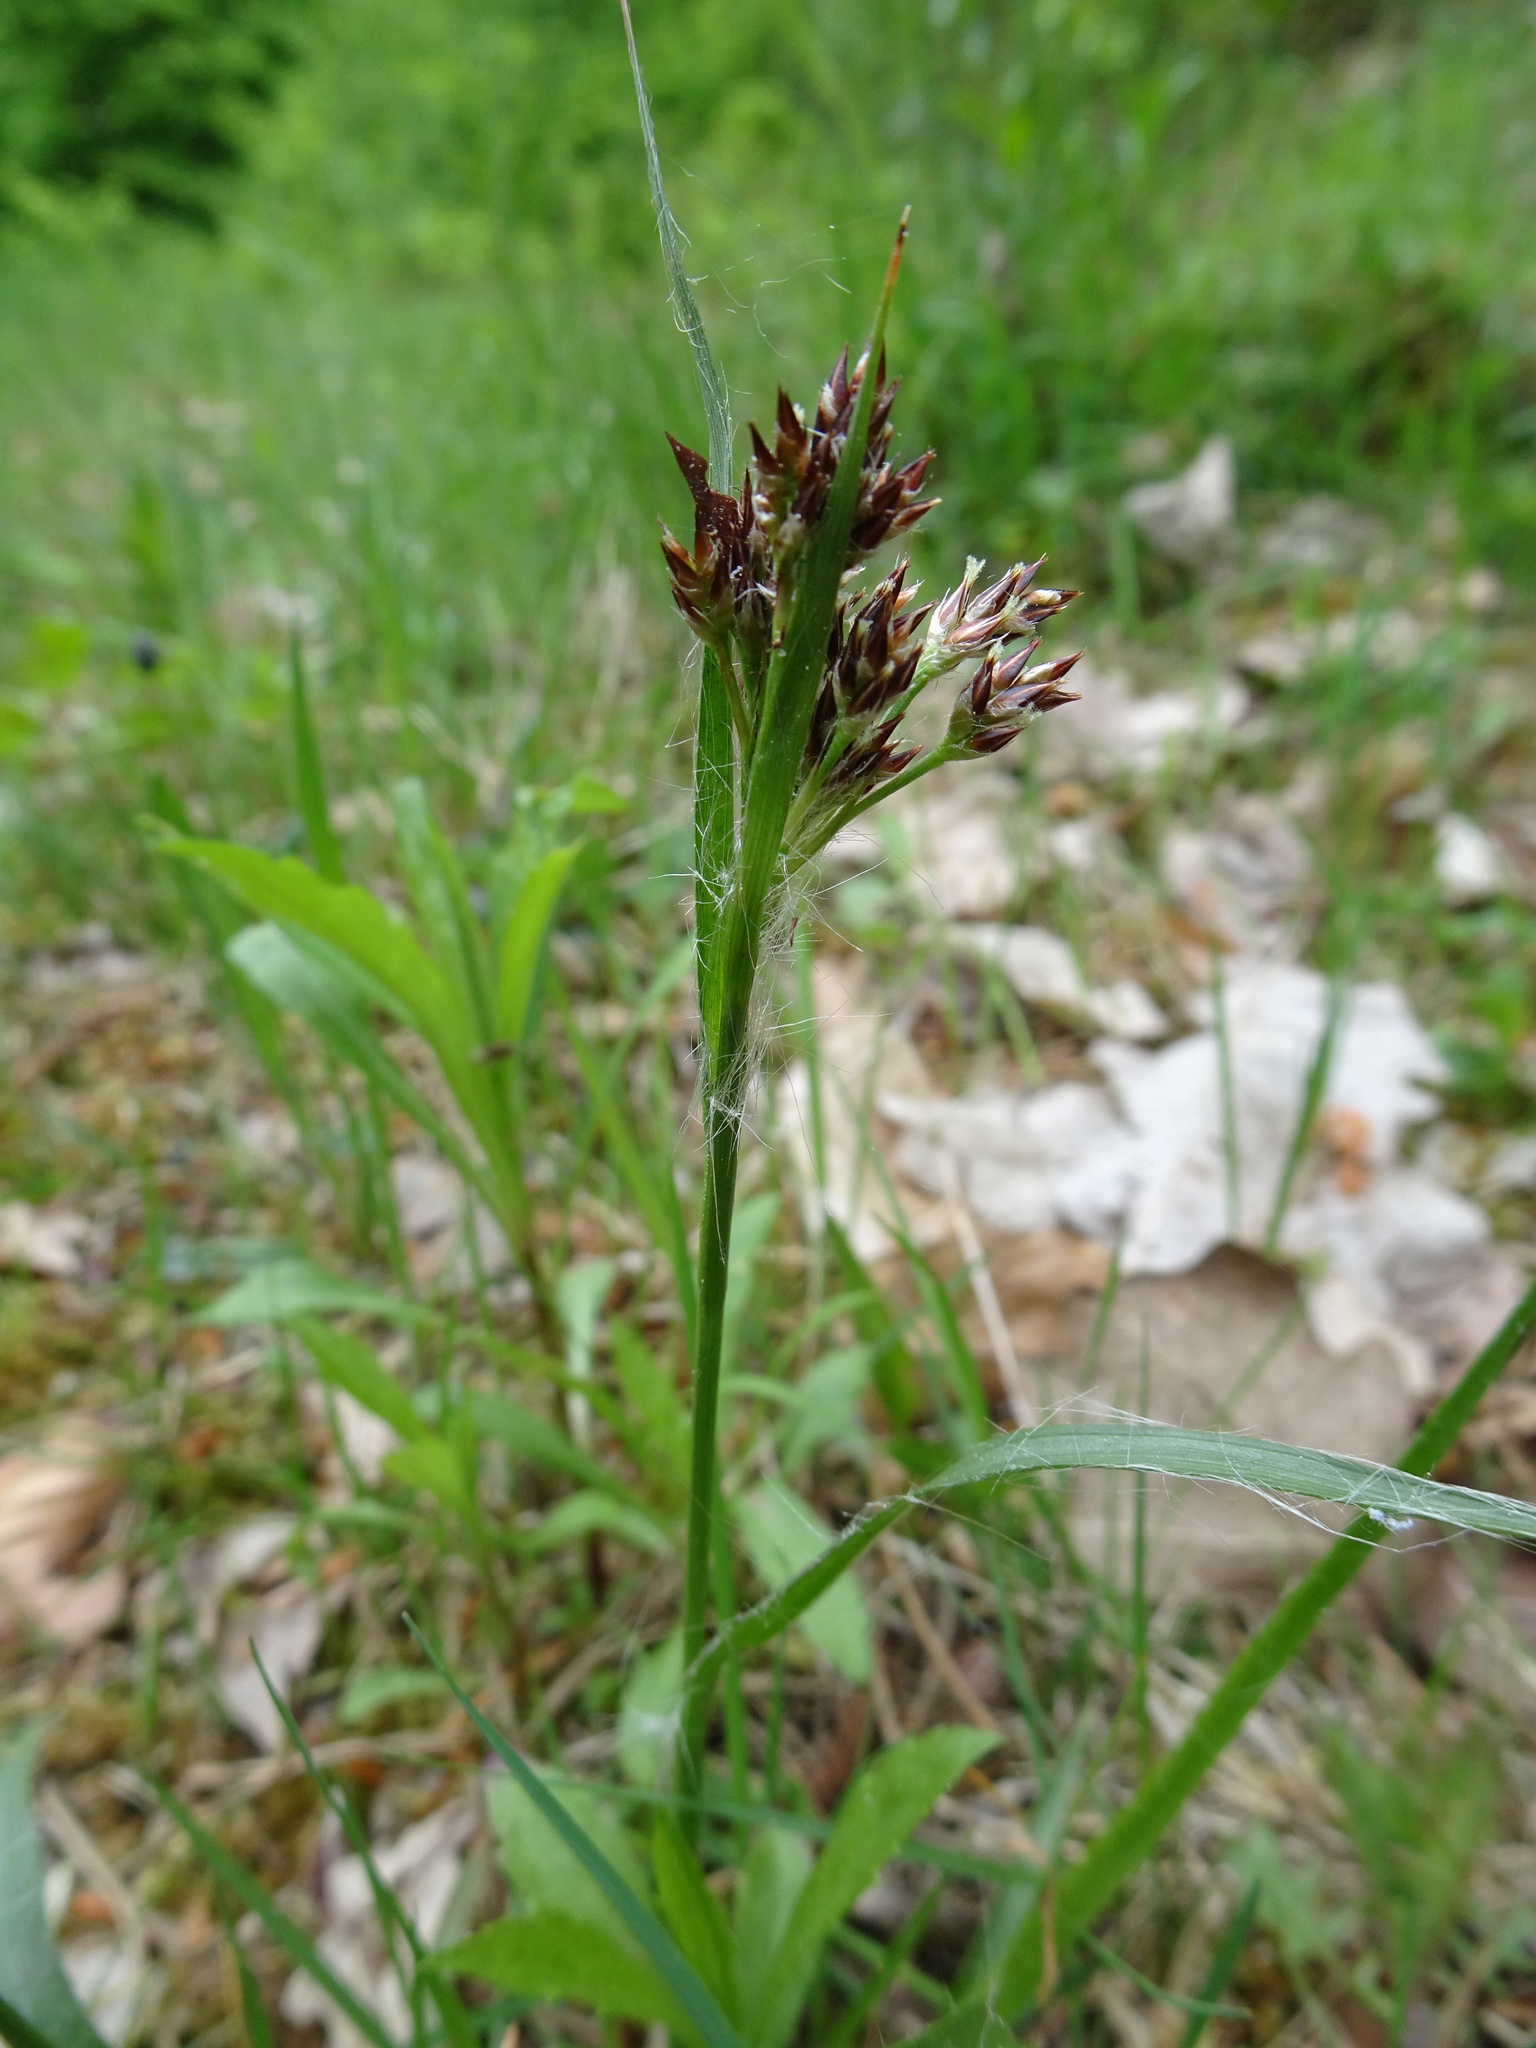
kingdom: Plantae
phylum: Tracheophyta
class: Liliopsida
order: Poales
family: Juncaceae
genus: Luzula
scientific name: Luzula campestris
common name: Field wood-rush
